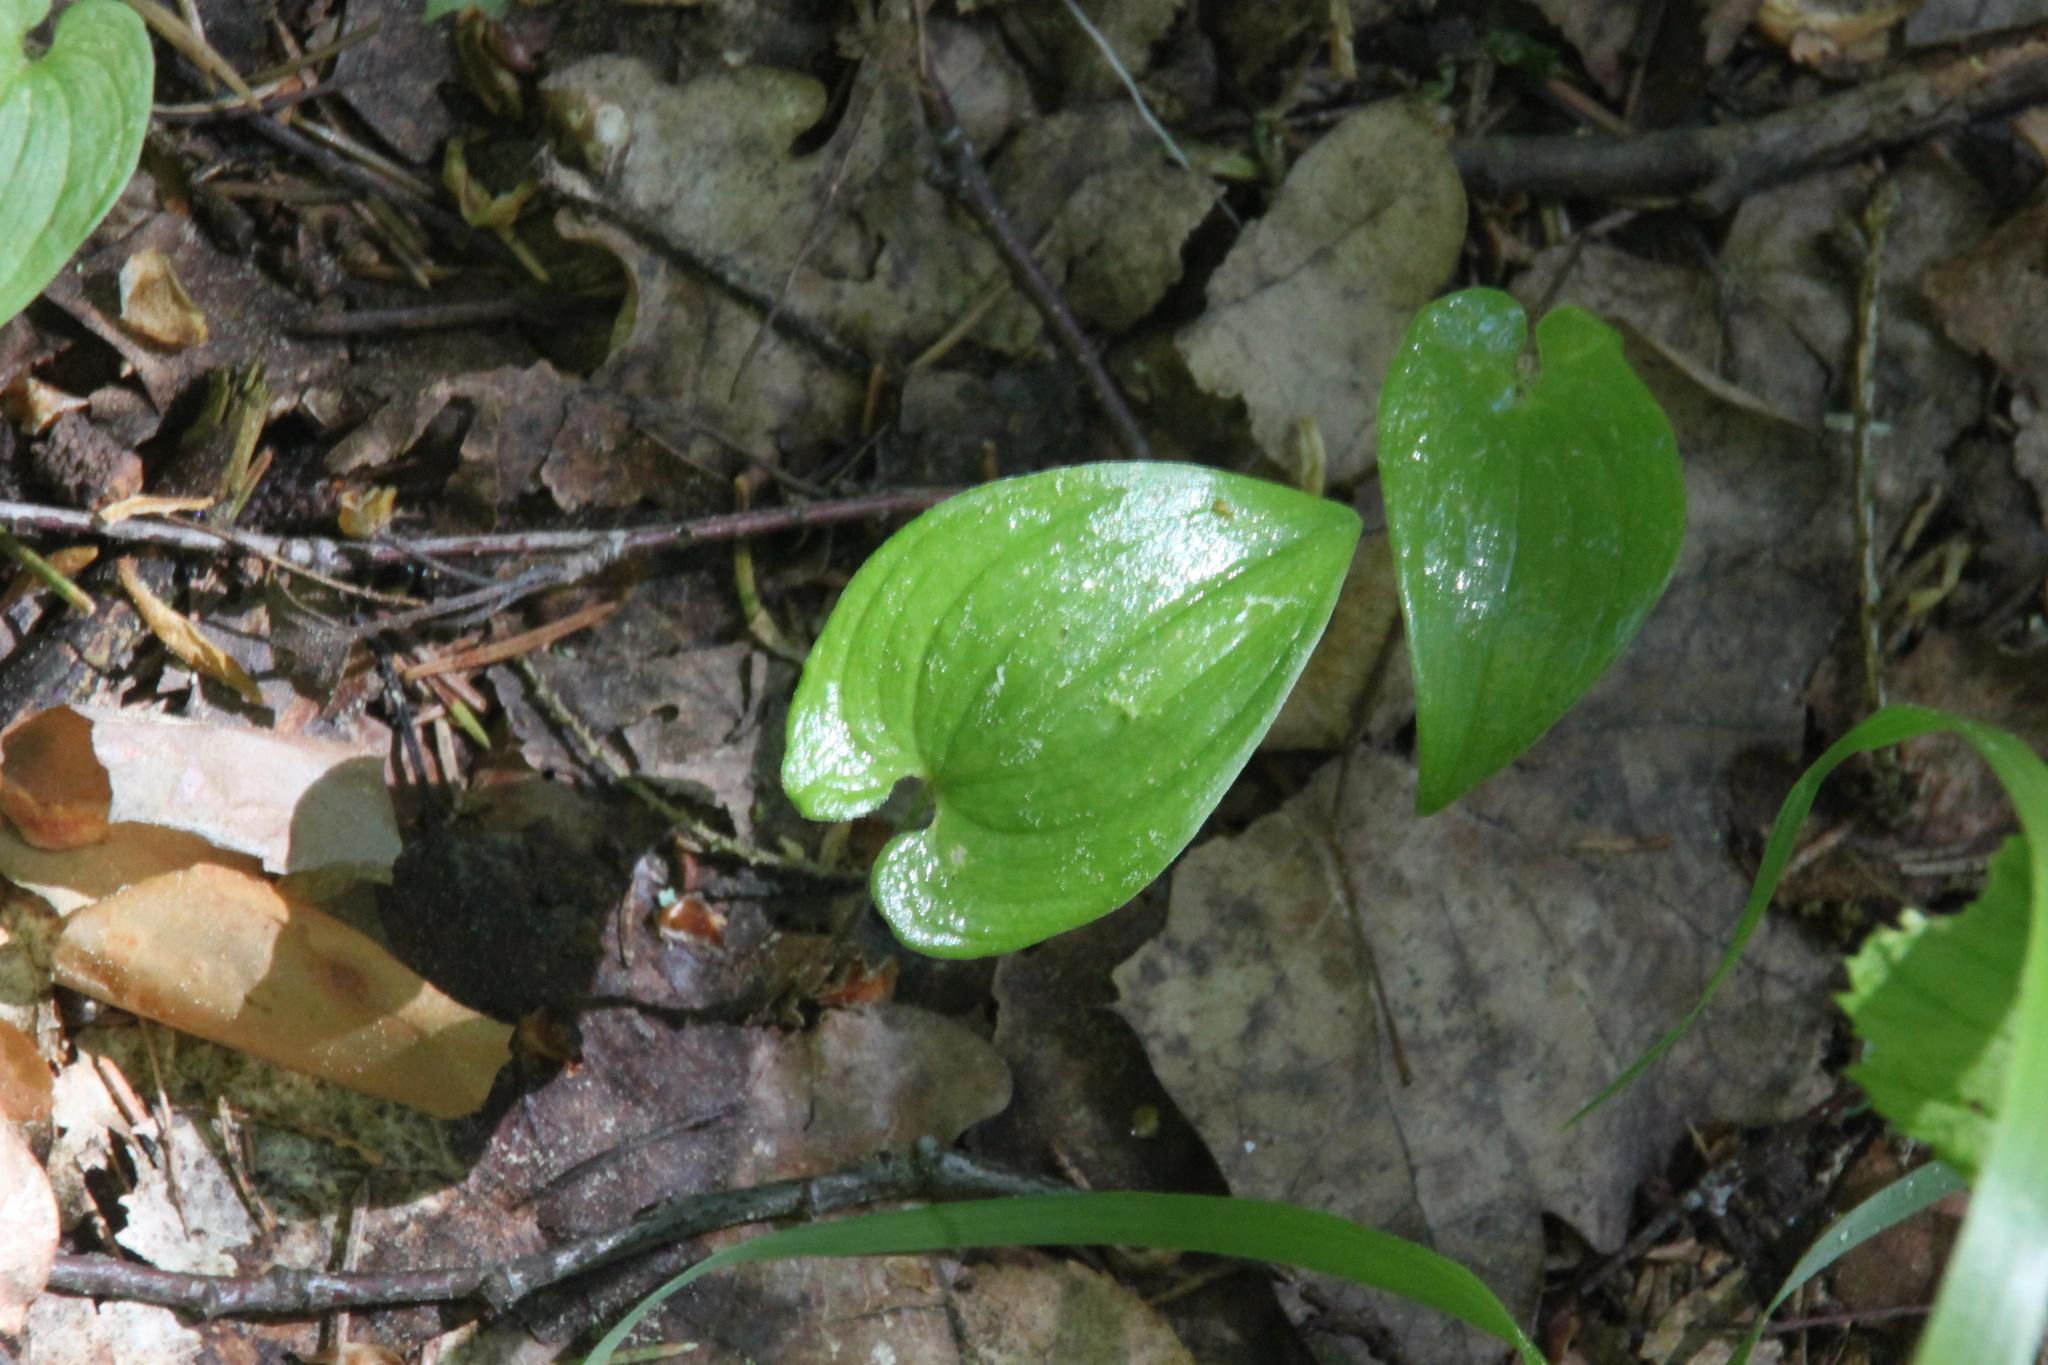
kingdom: Plantae
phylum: Tracheophyta
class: Liliopsida
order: Asparagales
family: Asparagaceae
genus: Maianthemum
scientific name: Maianthemum bifolium
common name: May lily
